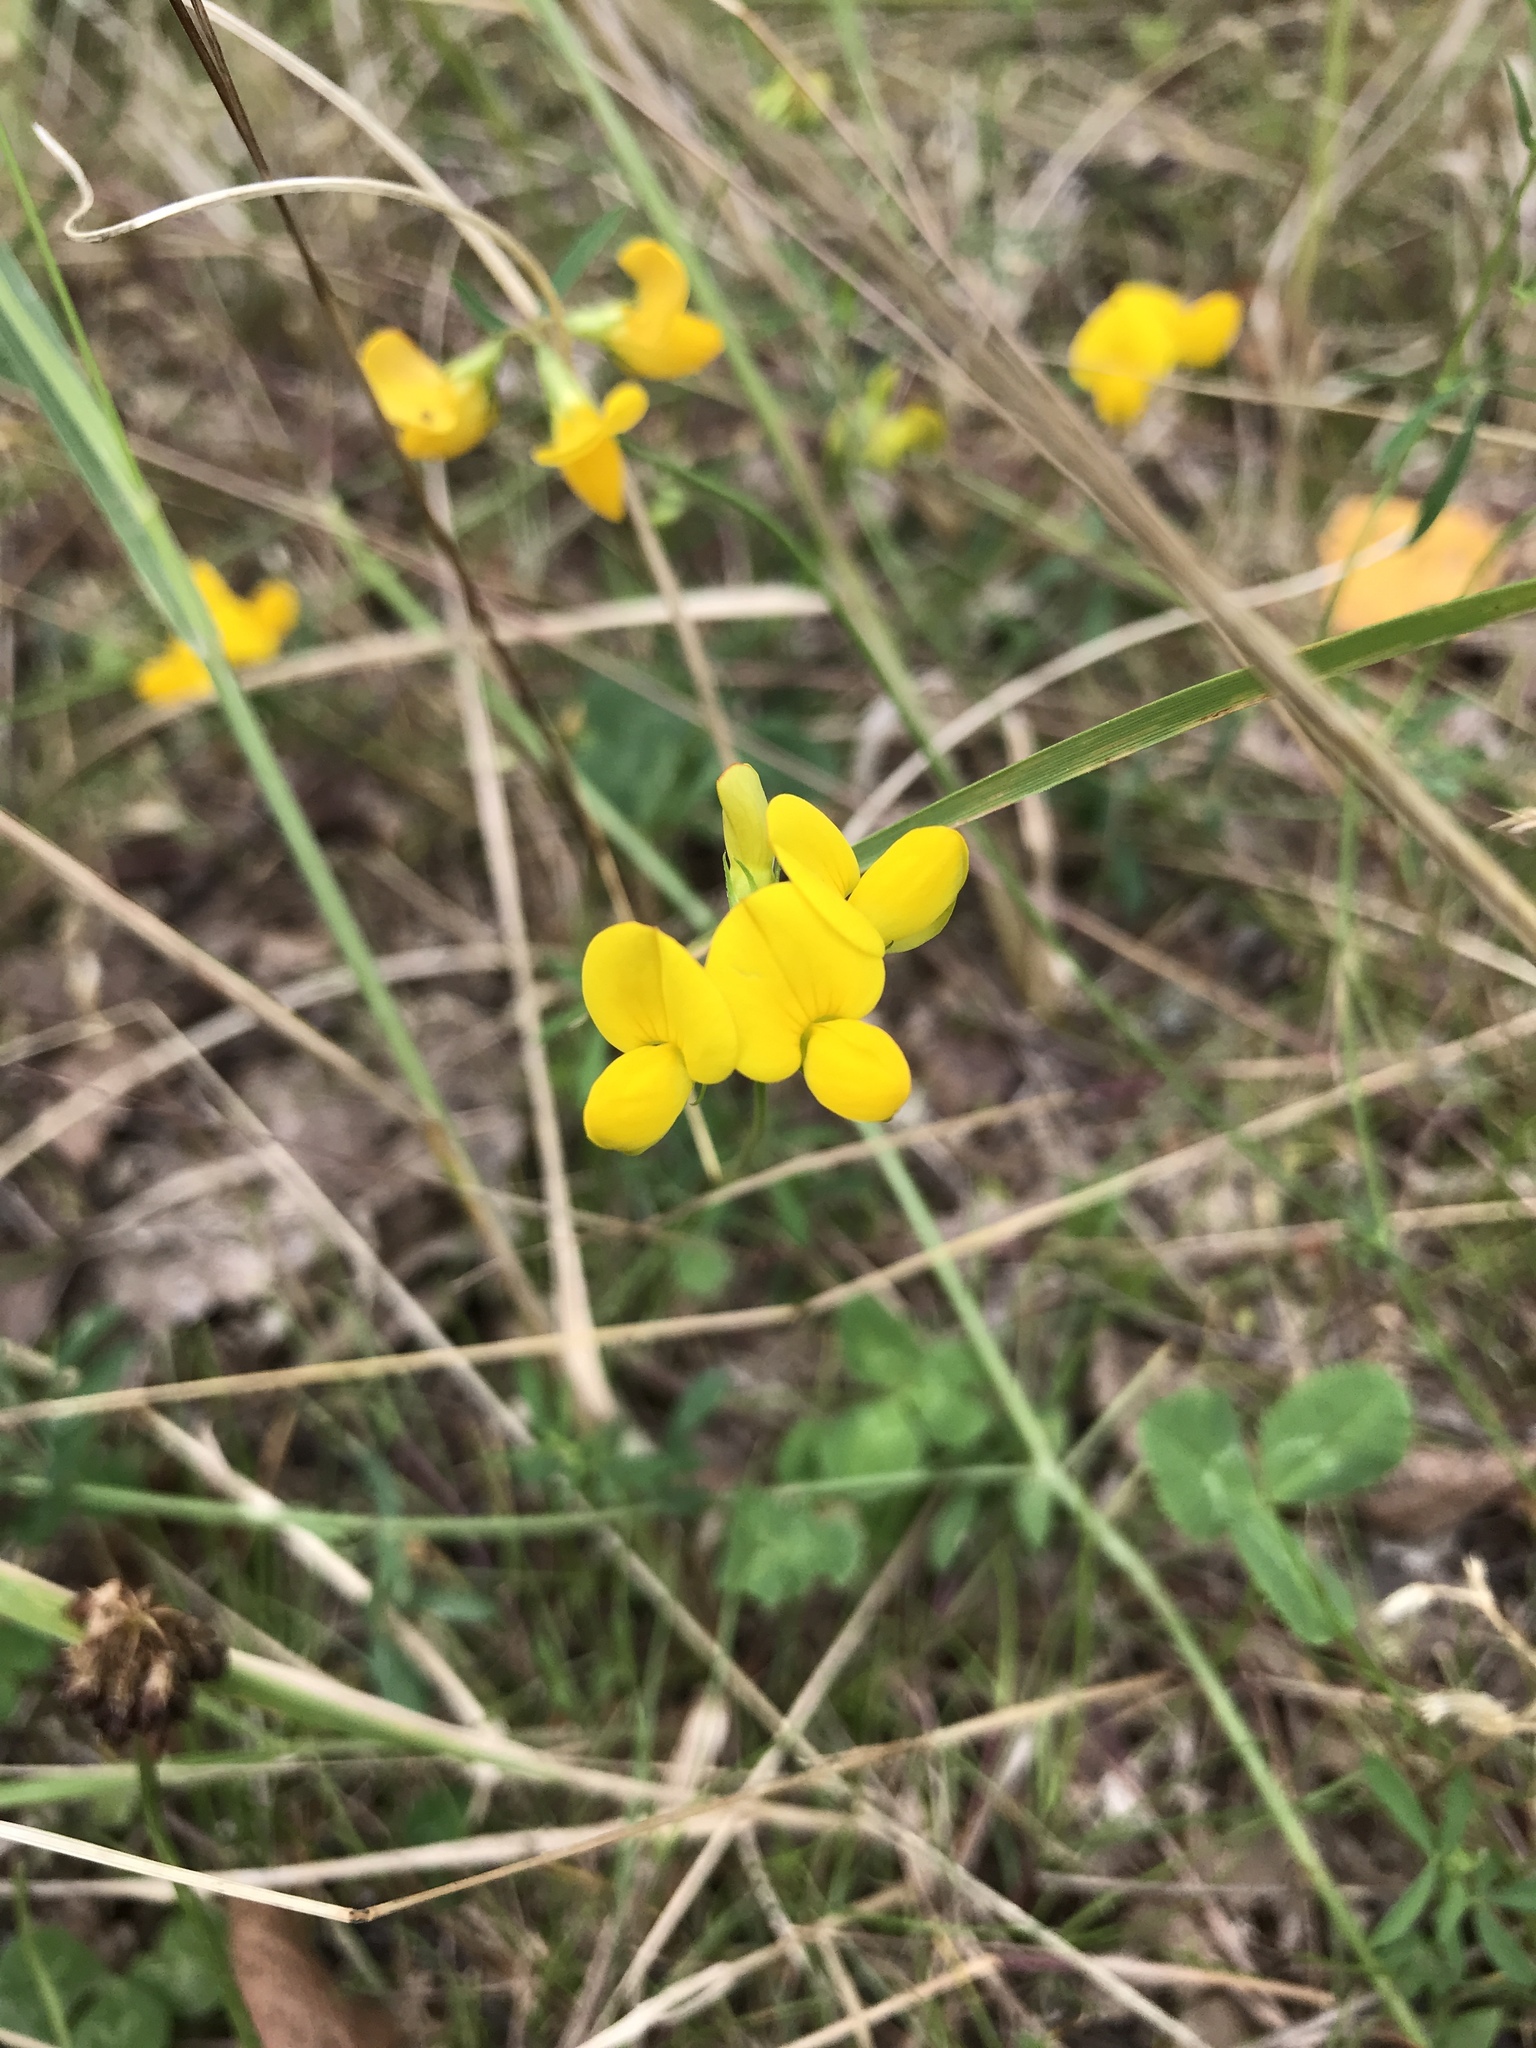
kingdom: Plantae
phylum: Tracheophyta
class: Magnoliopsida
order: Fabales
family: Fabaceae
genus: Lotus
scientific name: Lotus corniculatus
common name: Common bird's-foot-trefoil
